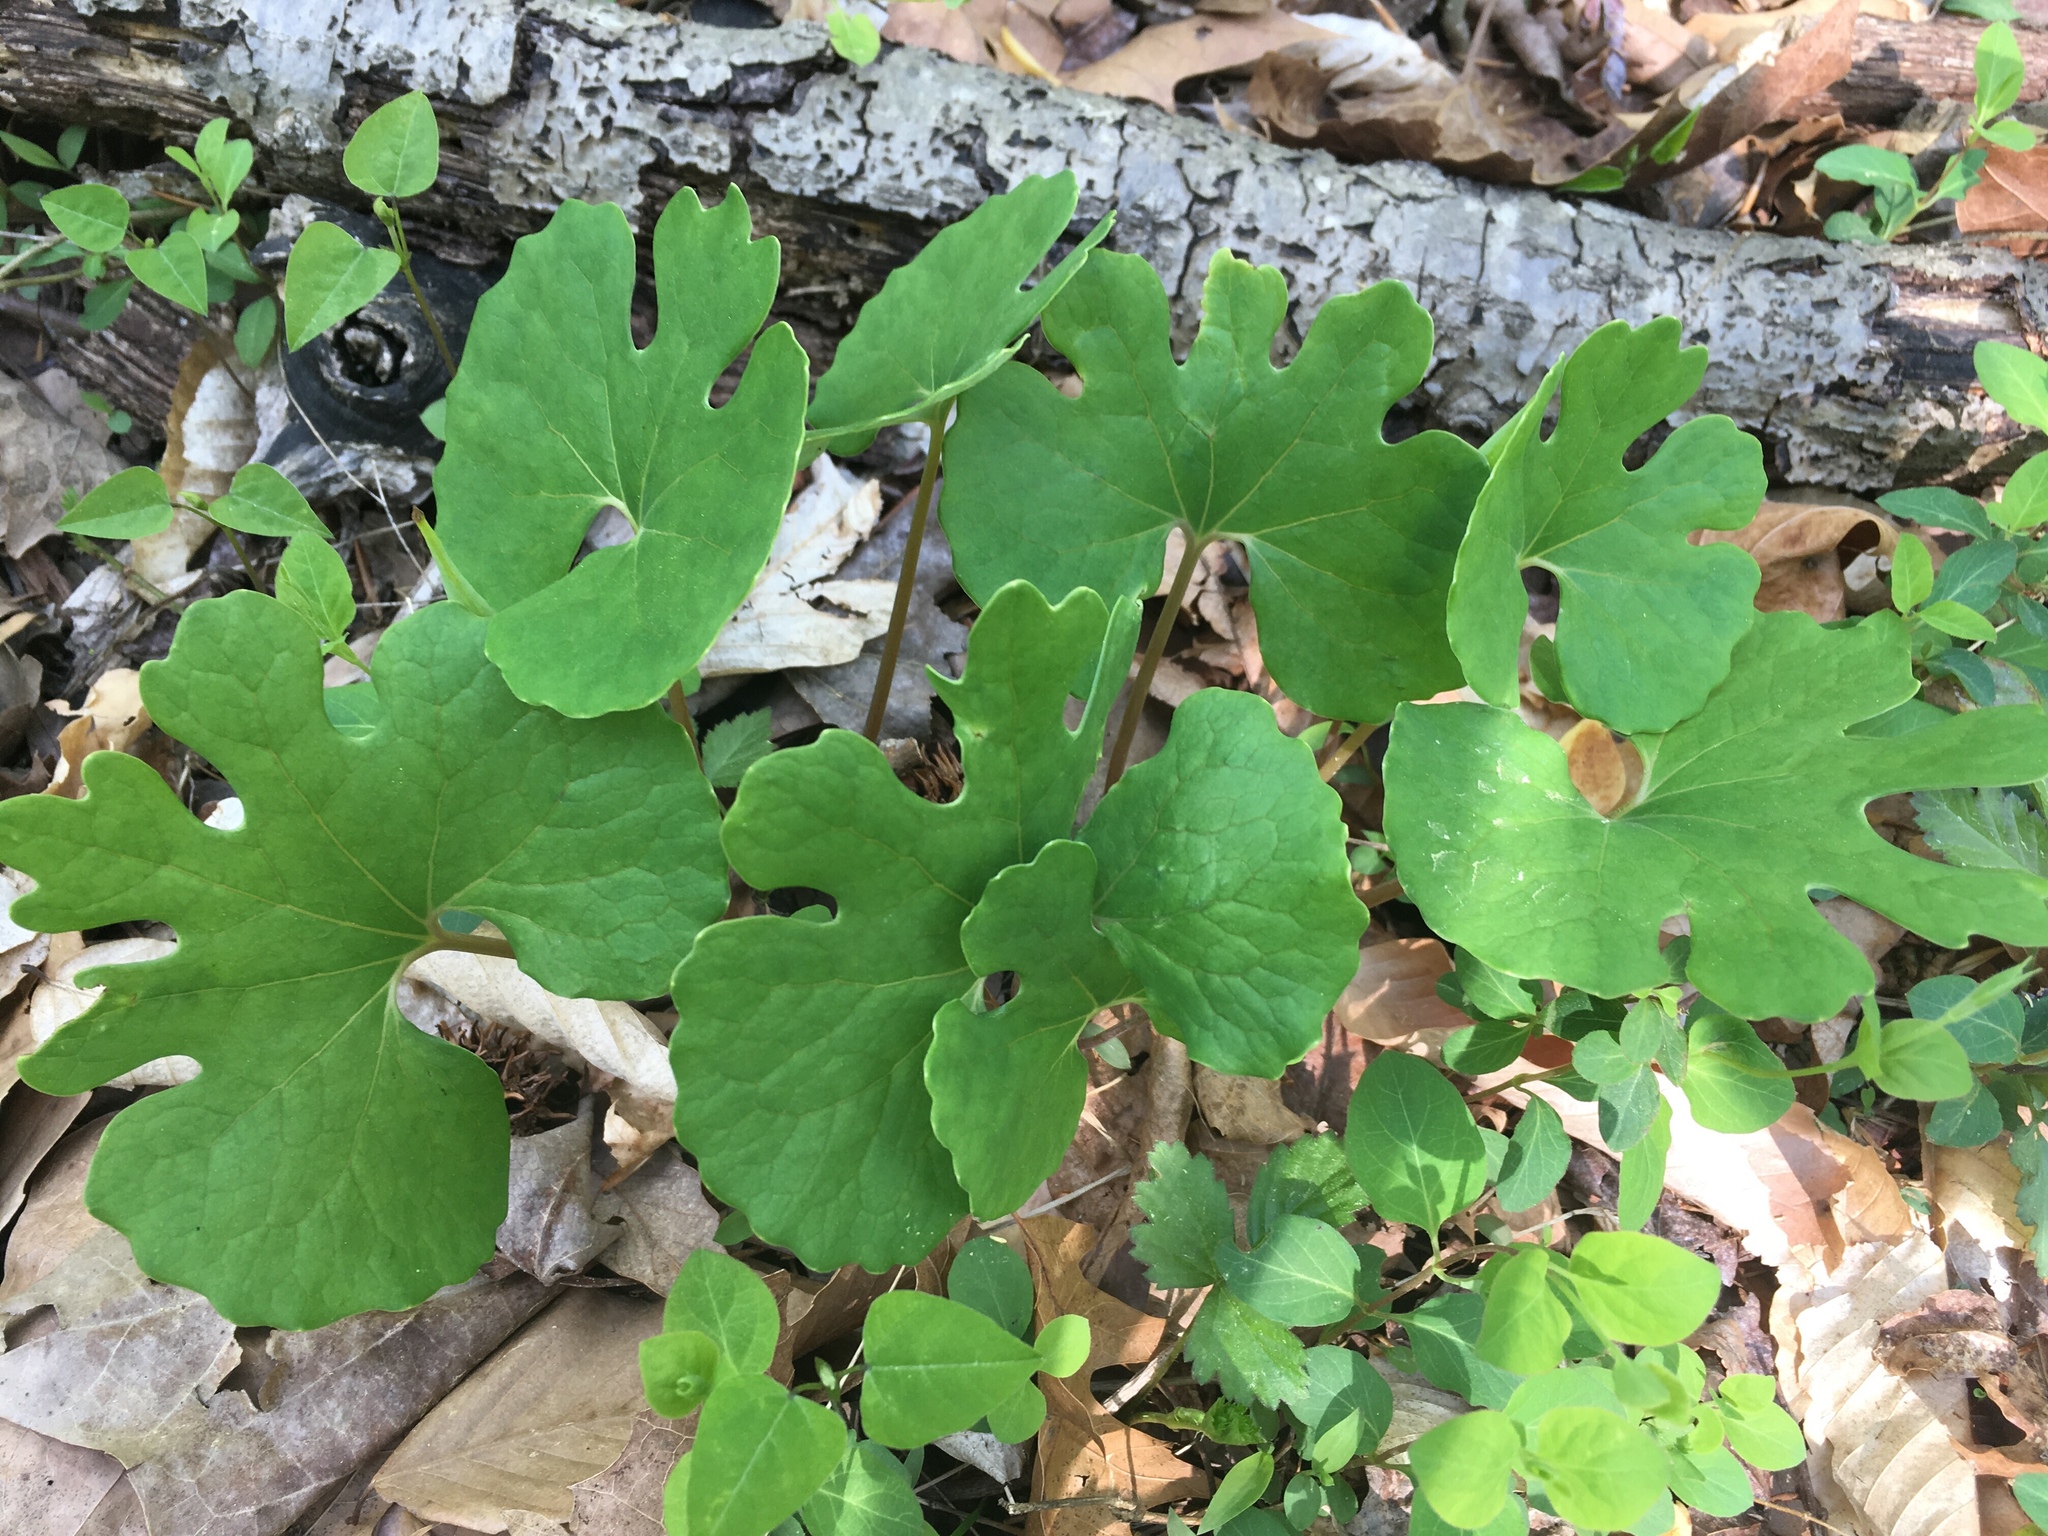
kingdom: Plantae
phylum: Tracheophyta
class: Magnoliopsida
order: Ranunculales
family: Papaveraceae
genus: Sanguinaria
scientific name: Sanguinaria canadensis
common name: Bloodroot
